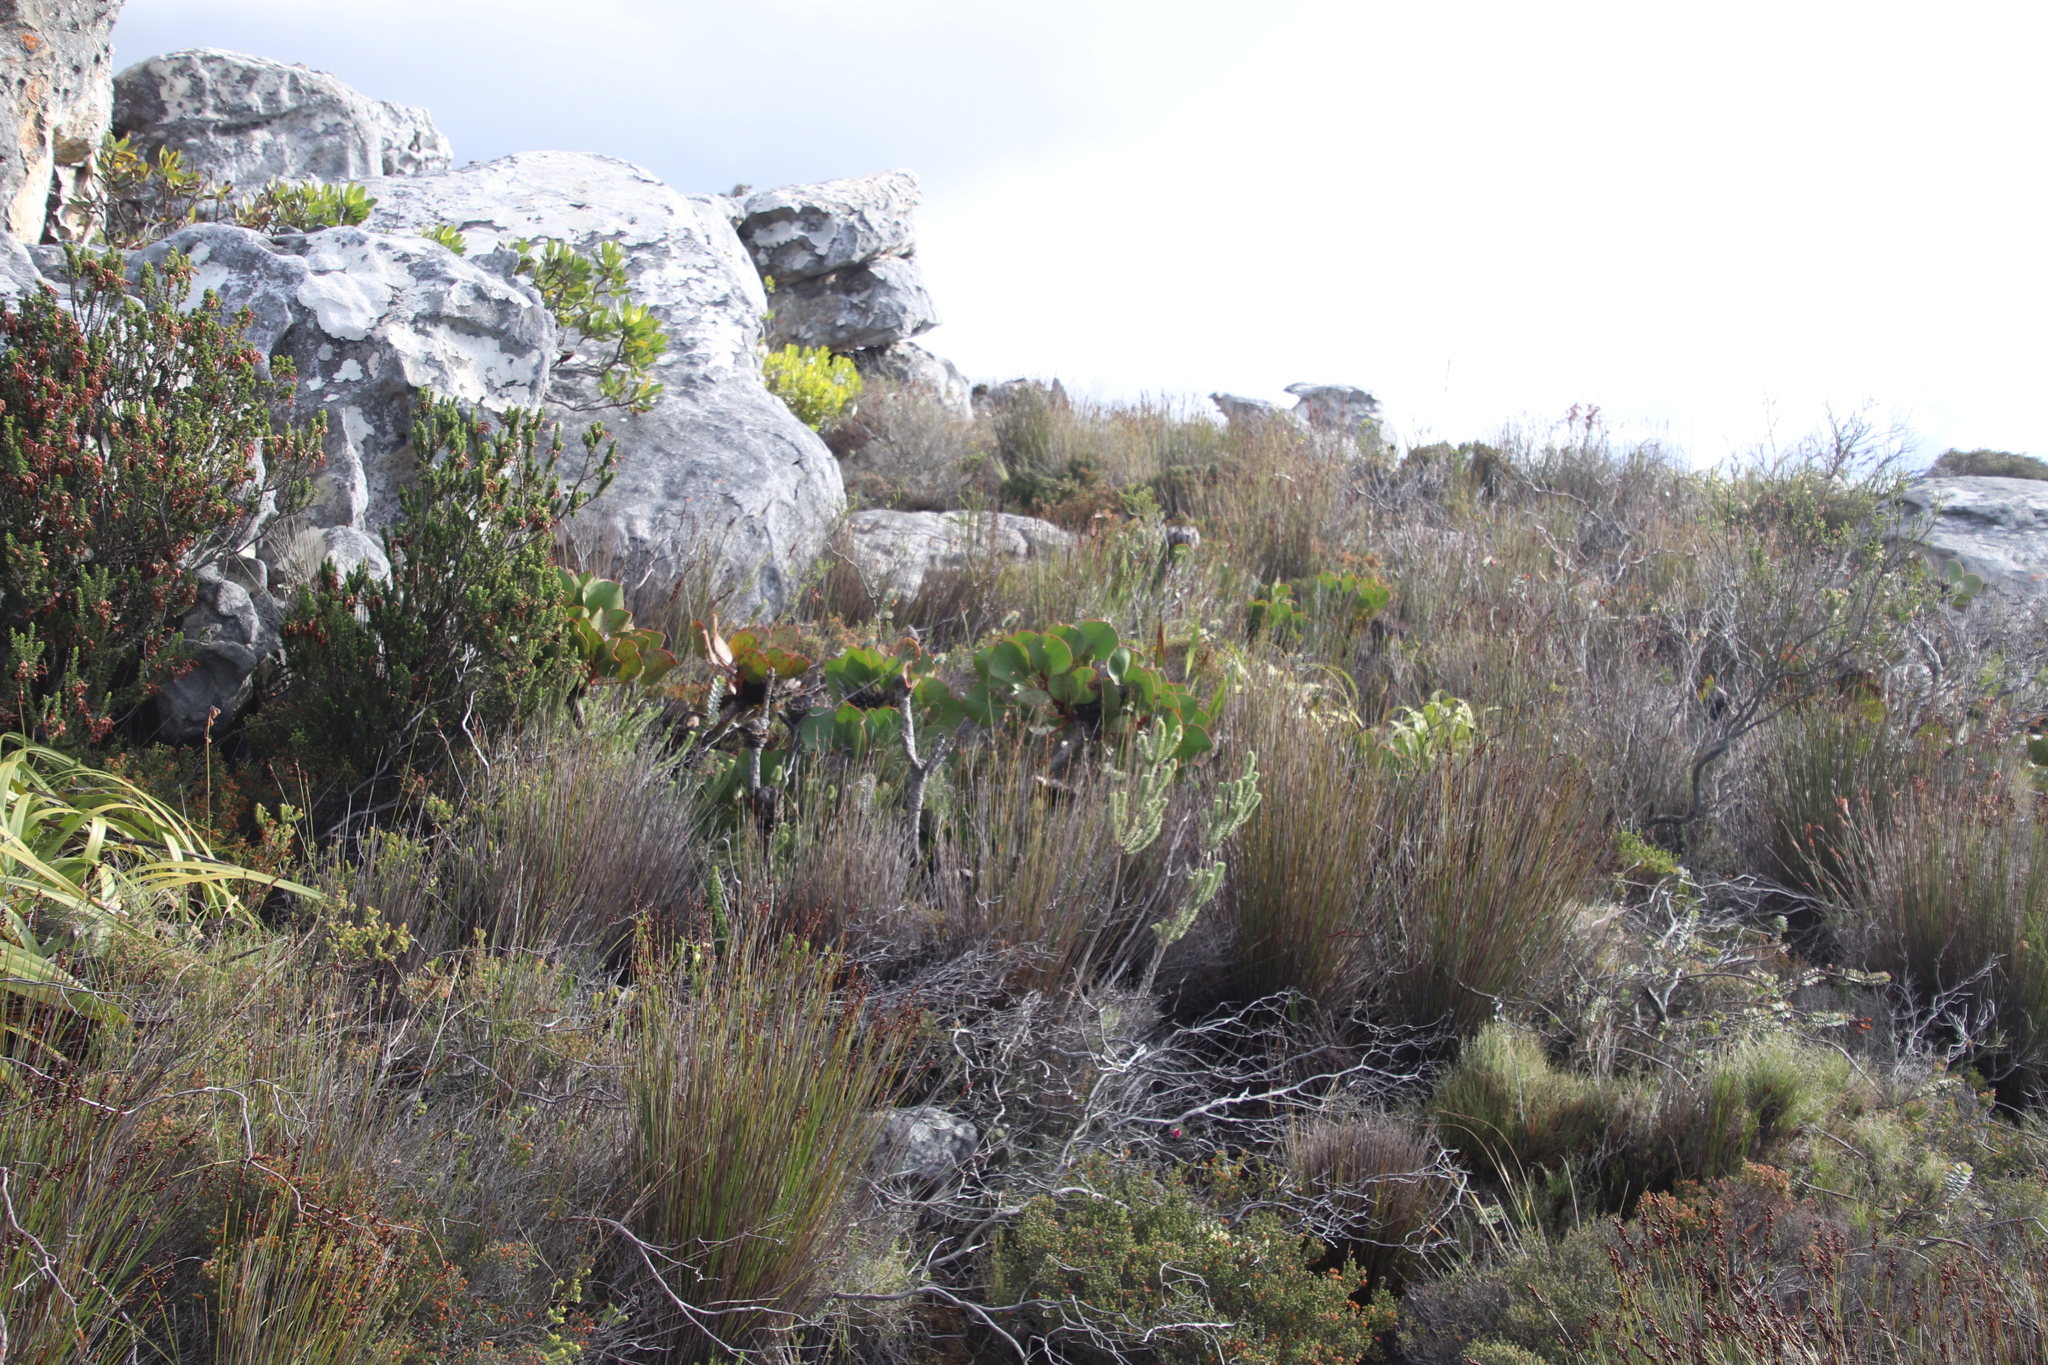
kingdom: Plantae
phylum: Tracheophyta
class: Magnoliopsida
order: Proteales
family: Proteaceae
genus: Protea
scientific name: Protea cynaroides
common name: King protea
